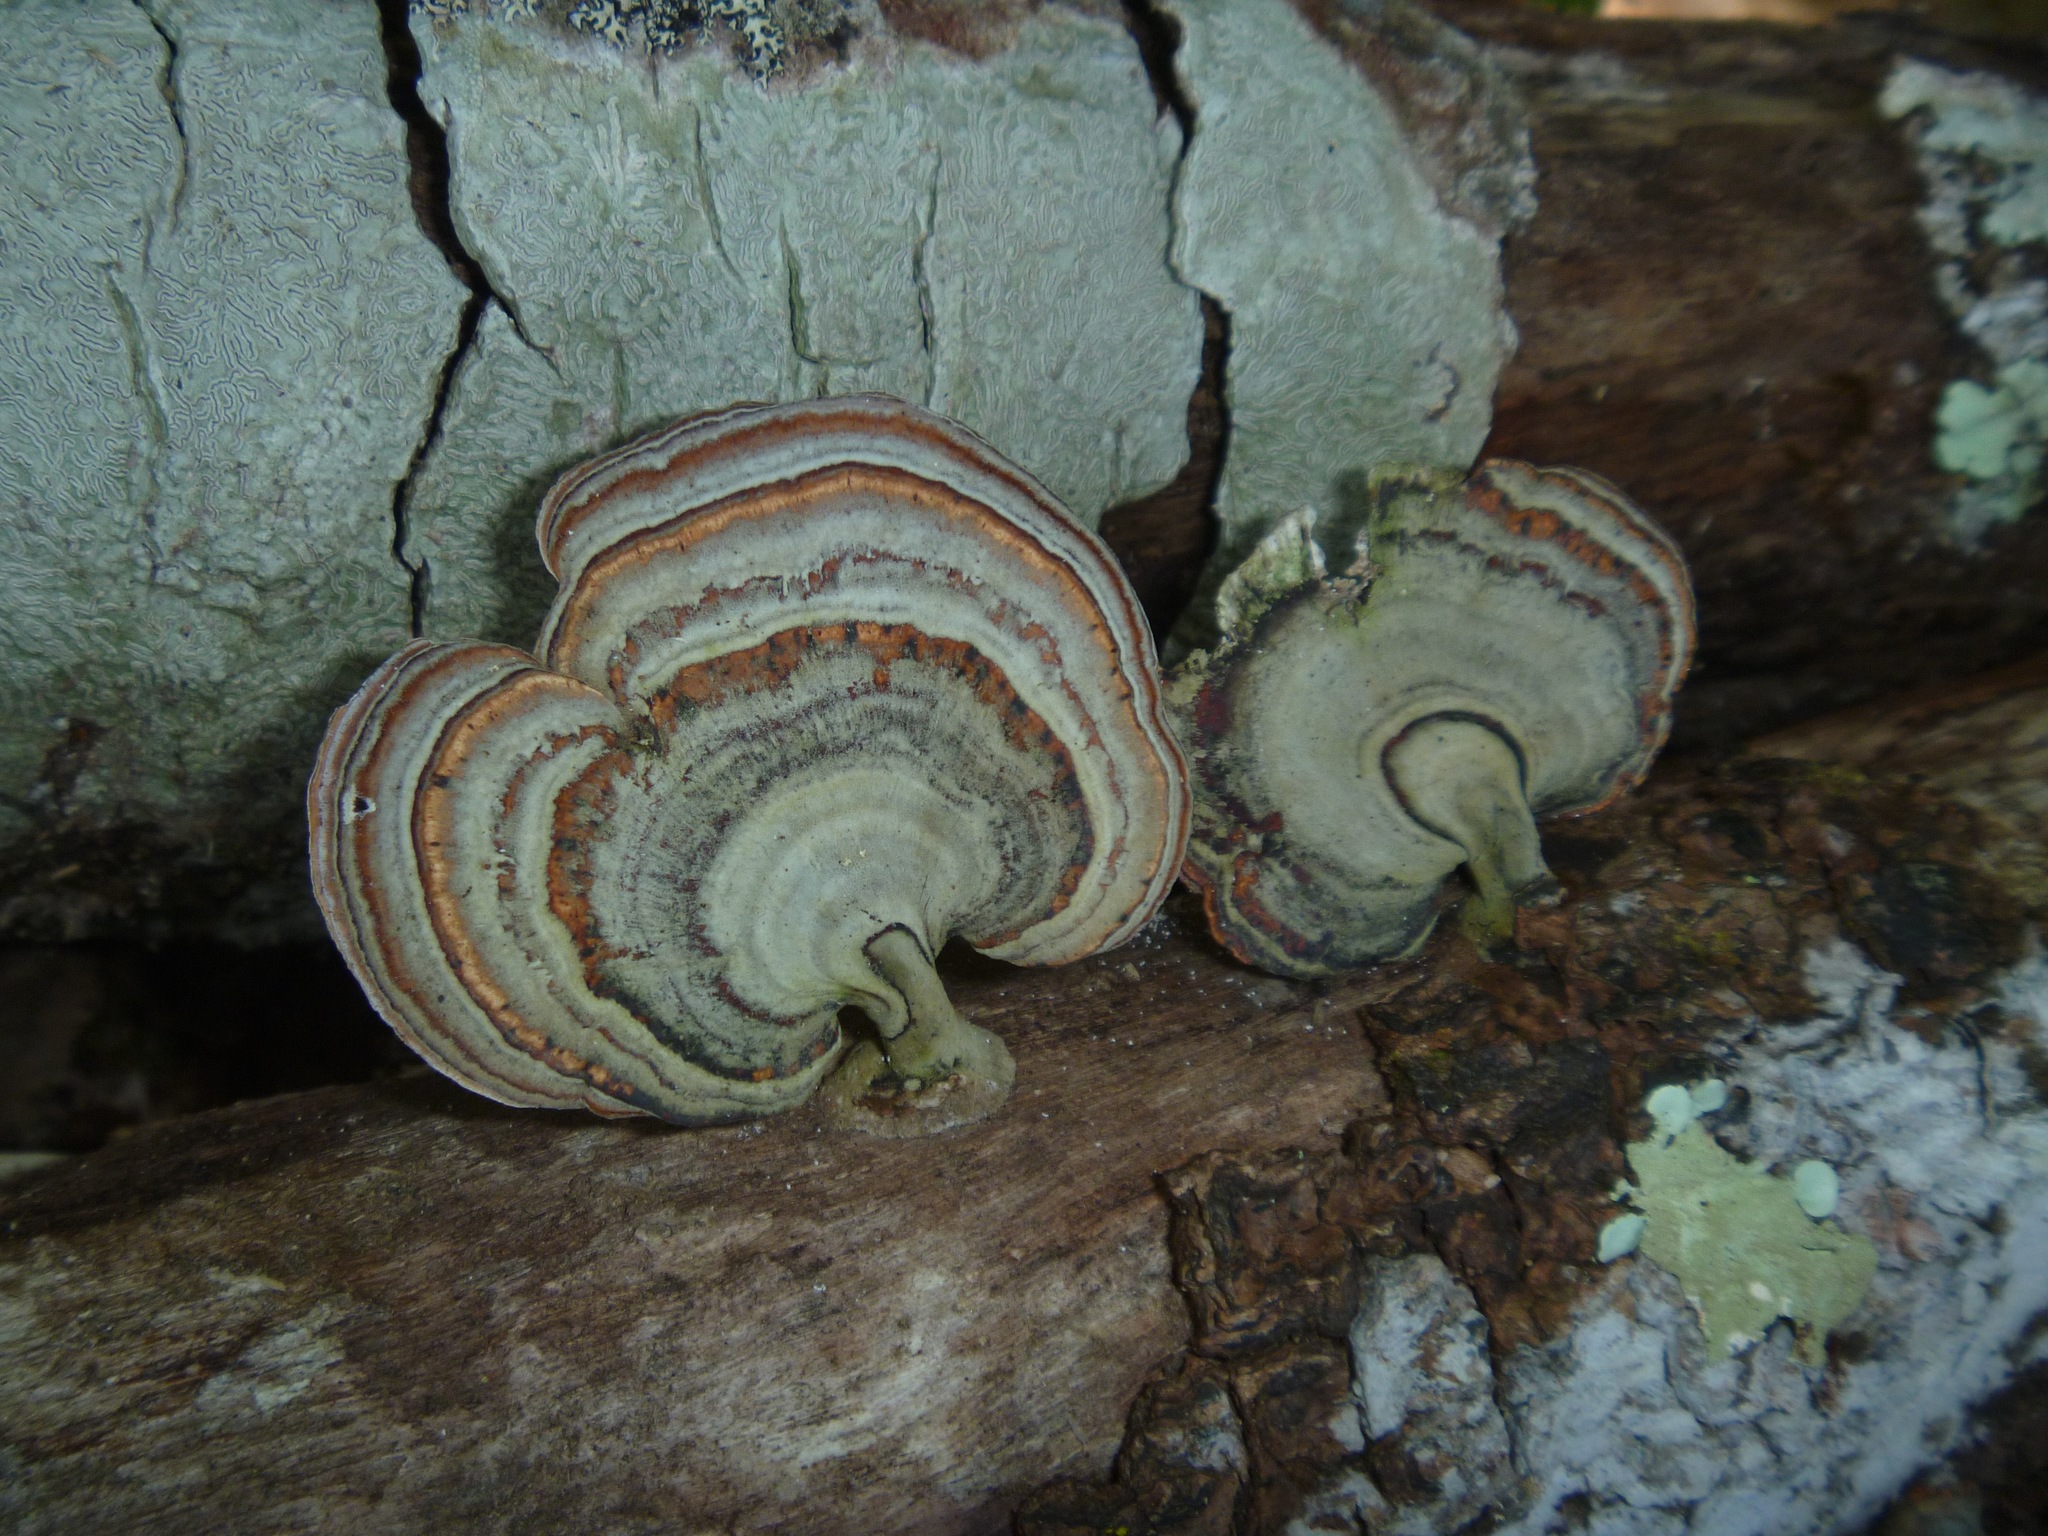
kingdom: Fungi
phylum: Basidiomycota
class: Agaricomycetes
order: Polyporales
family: Polyporaceae
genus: Microporus
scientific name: Microporus affinis
